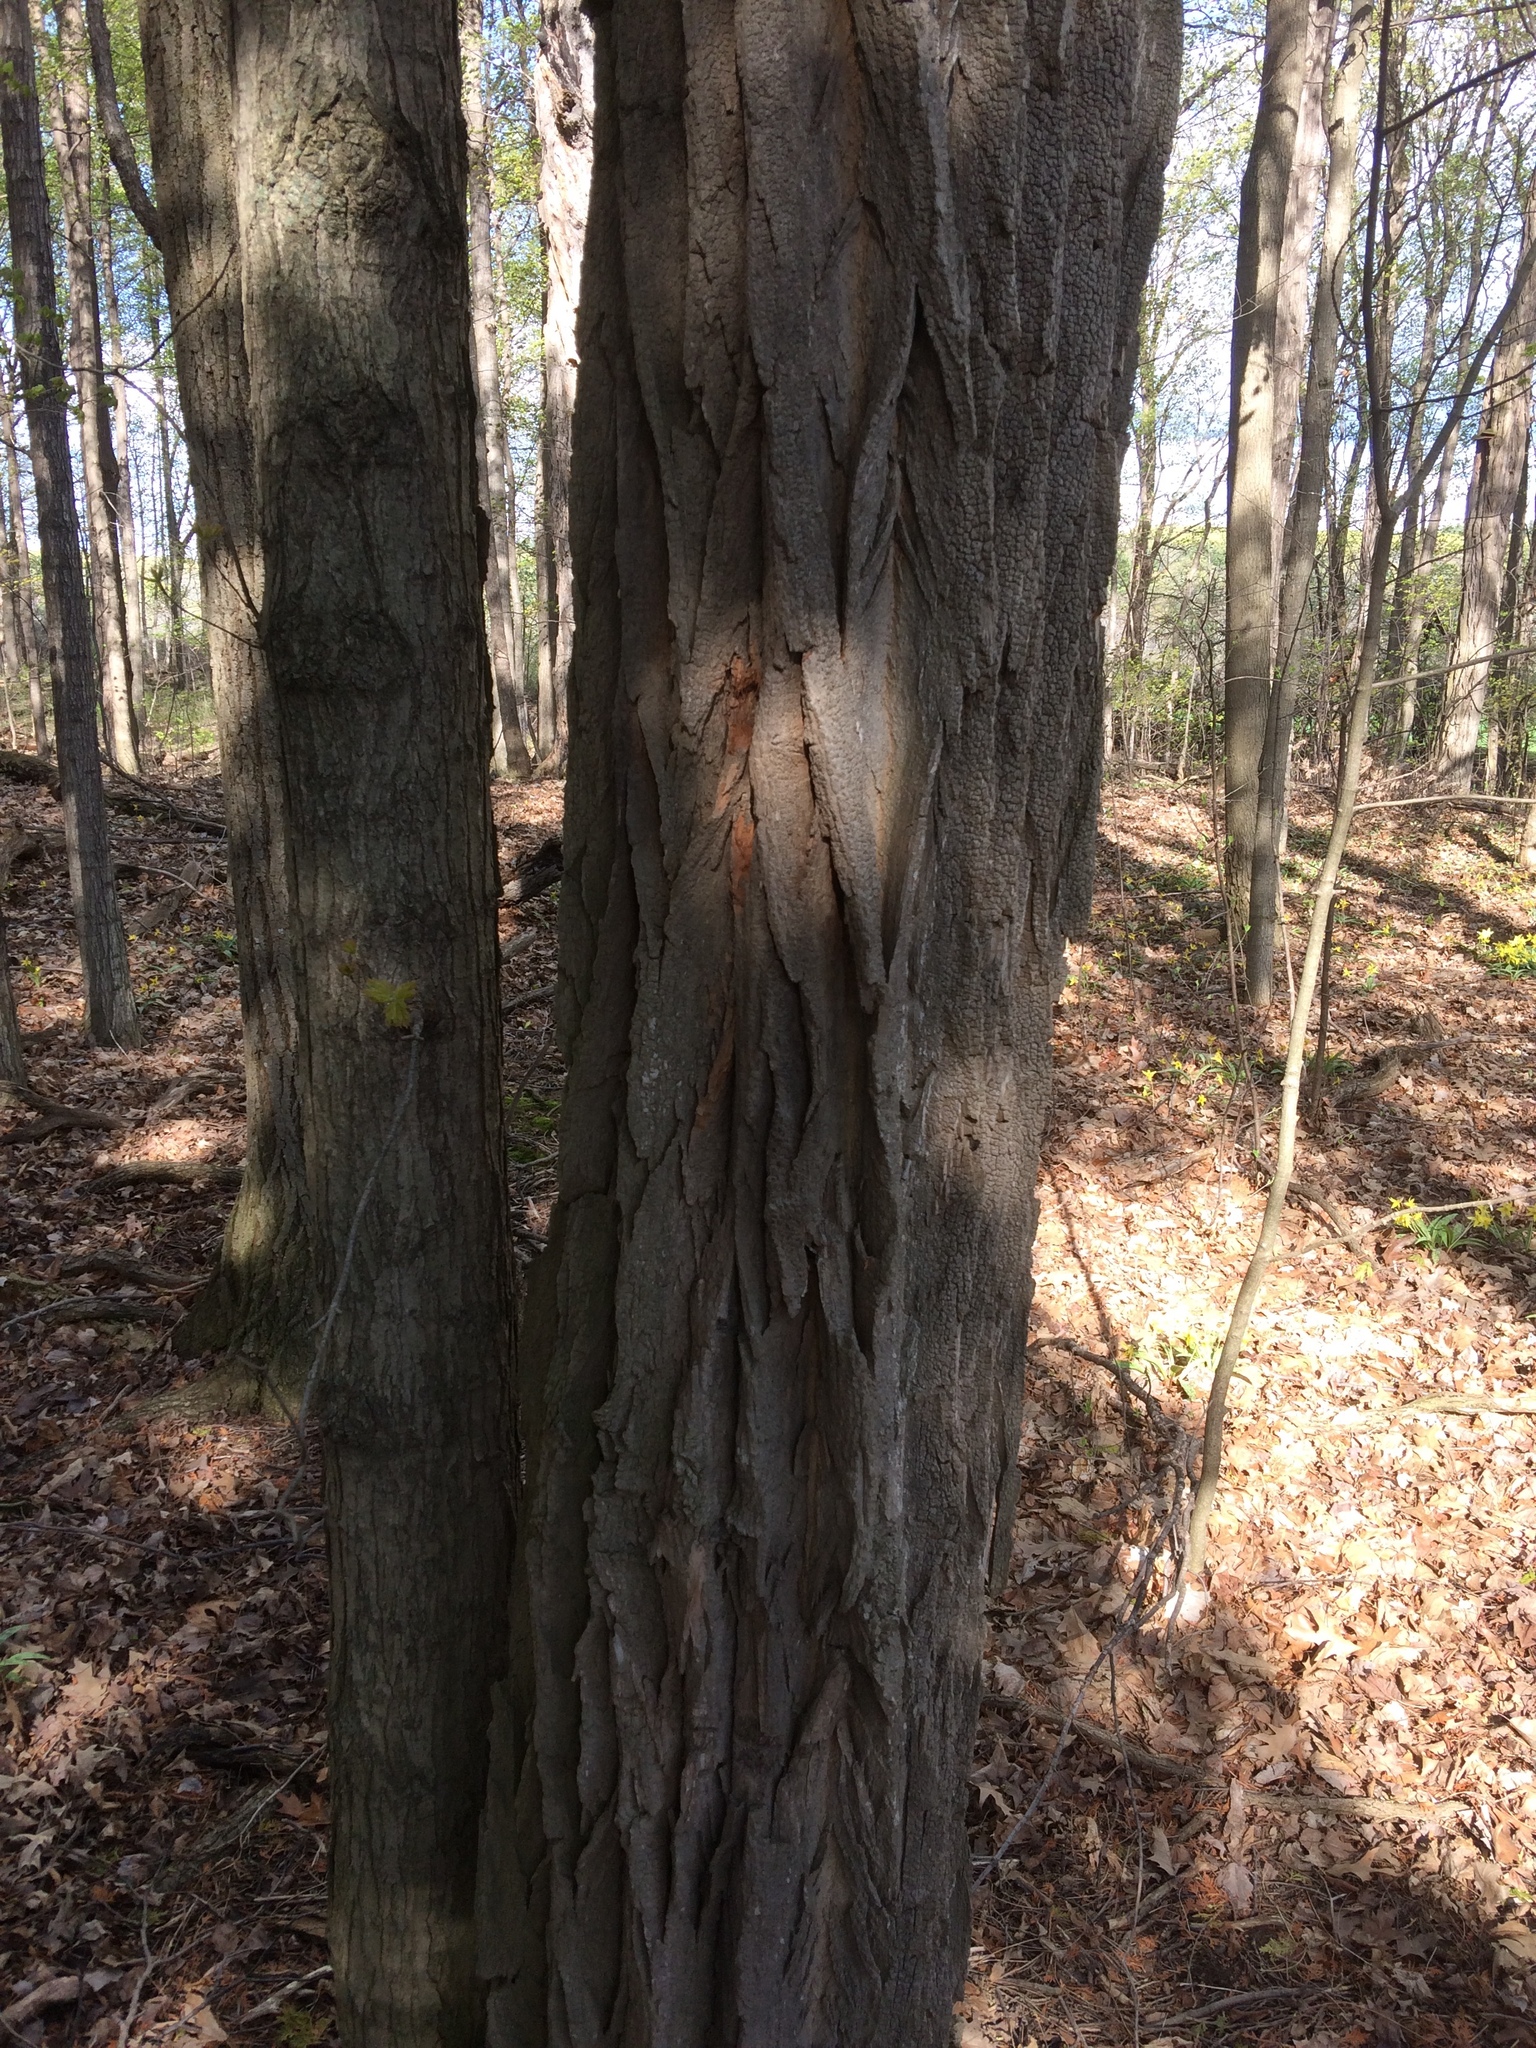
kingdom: Plantae
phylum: Tracheophyta
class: Magnoliopsida
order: Fabales
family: Fabaceae
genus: Robinia
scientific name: Robinia pseudoacacia
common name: Black locust
